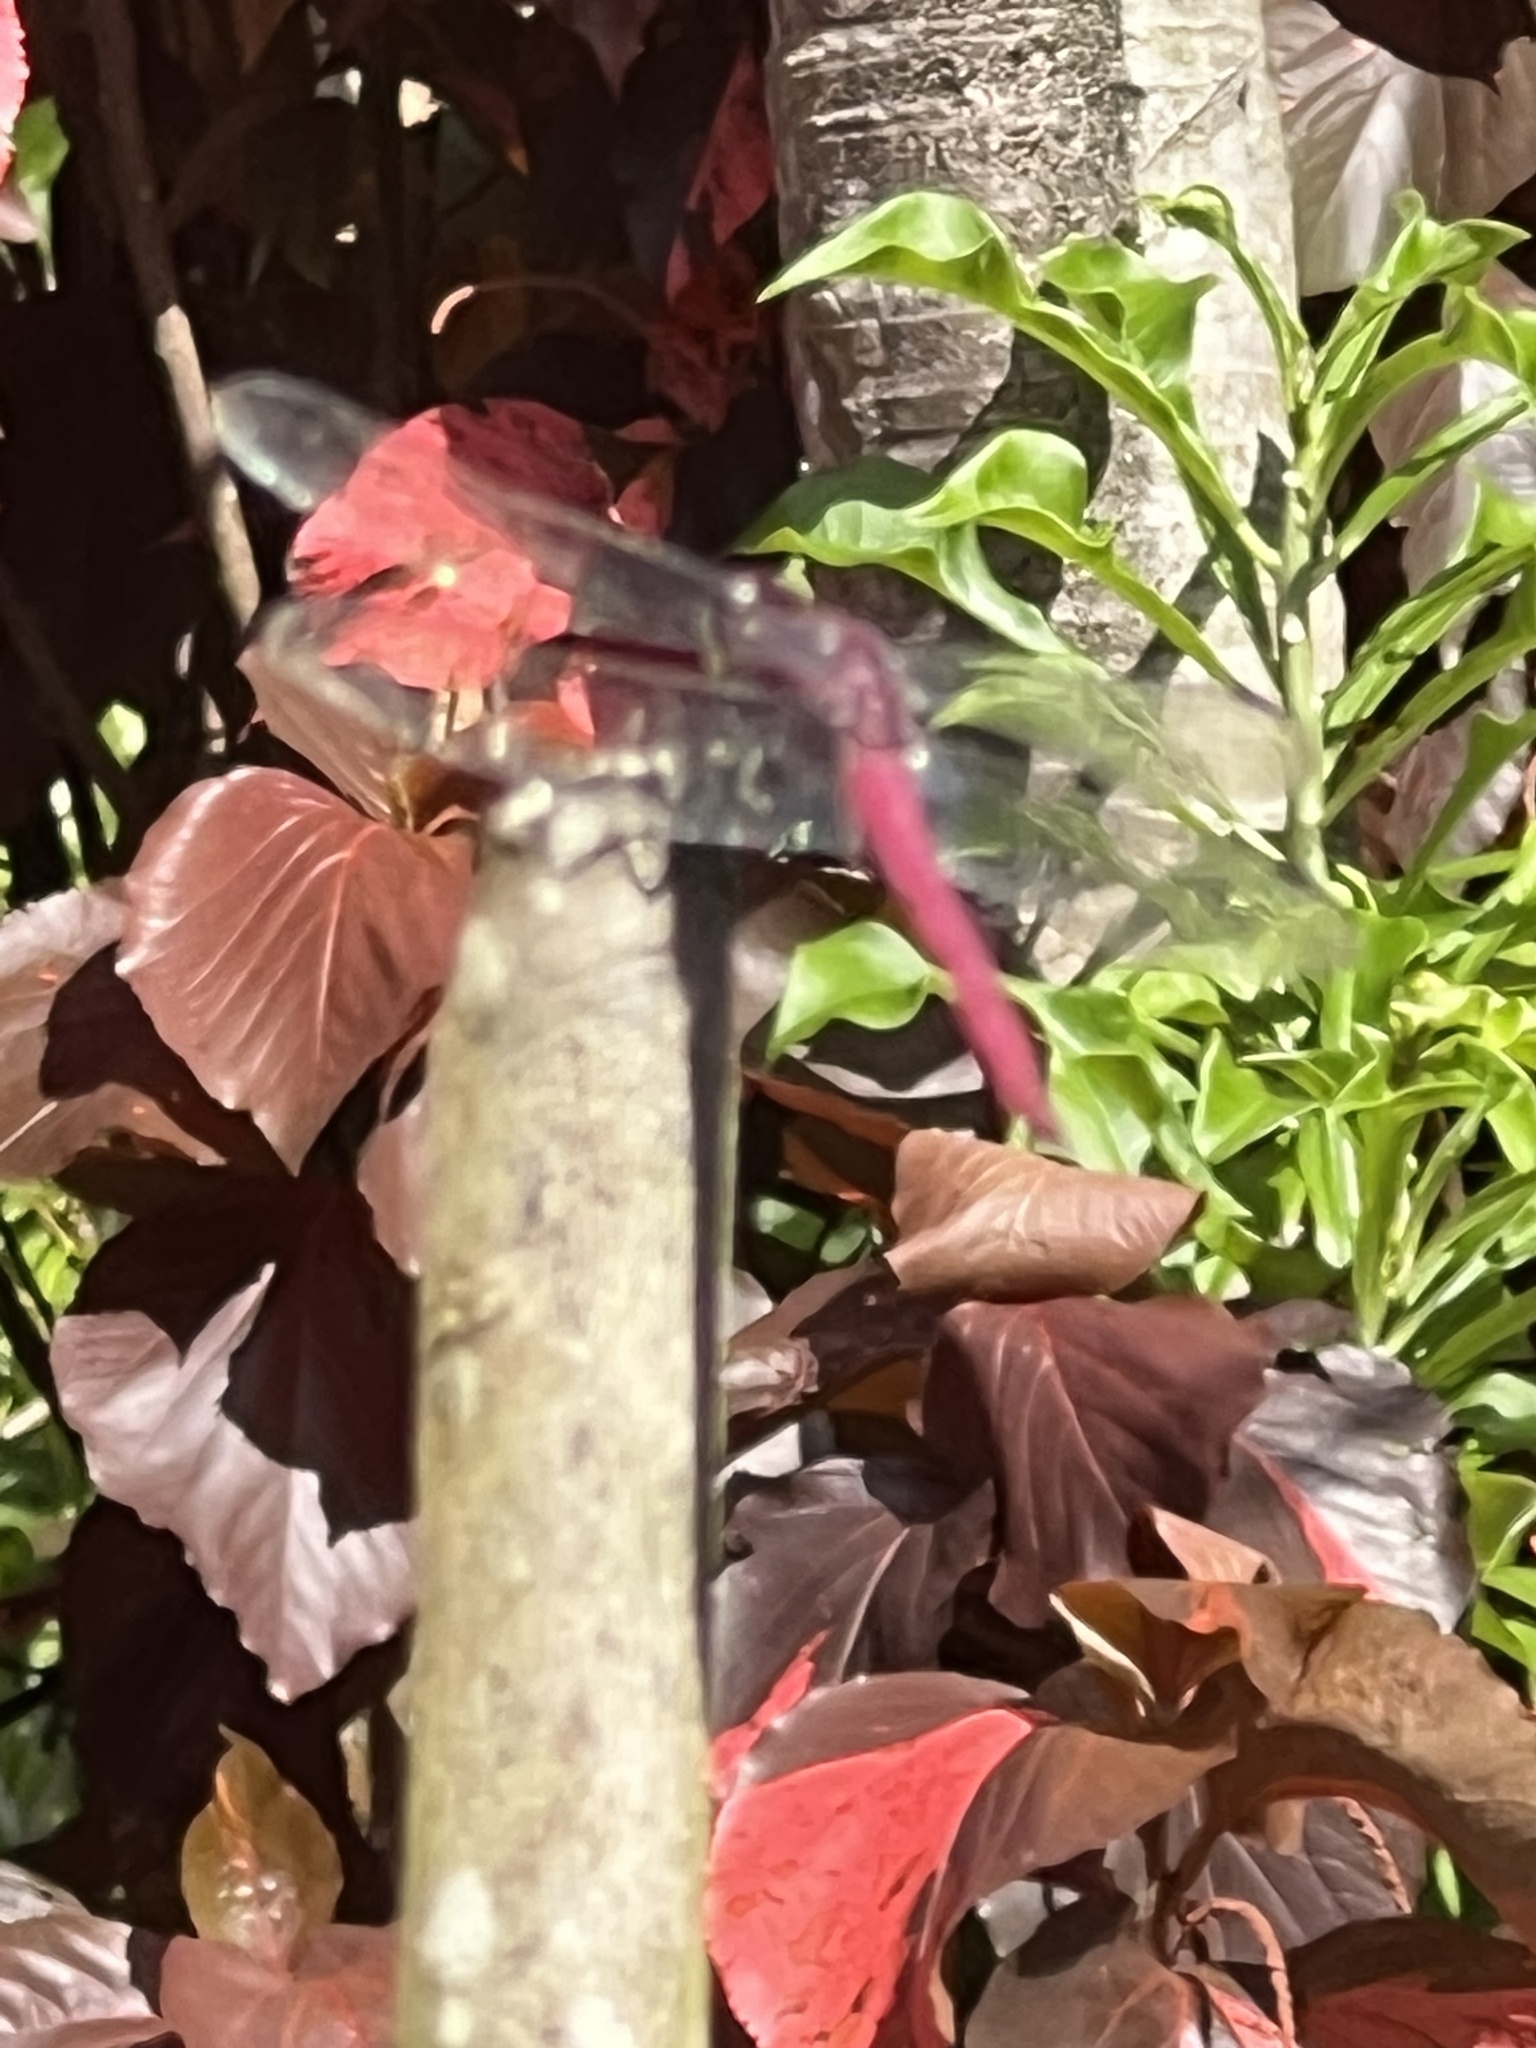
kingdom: Animalia
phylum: Arthropoda
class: Insecta
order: Odonata
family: Libellulidae
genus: Orthemis
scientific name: Orthemis macrostigma
